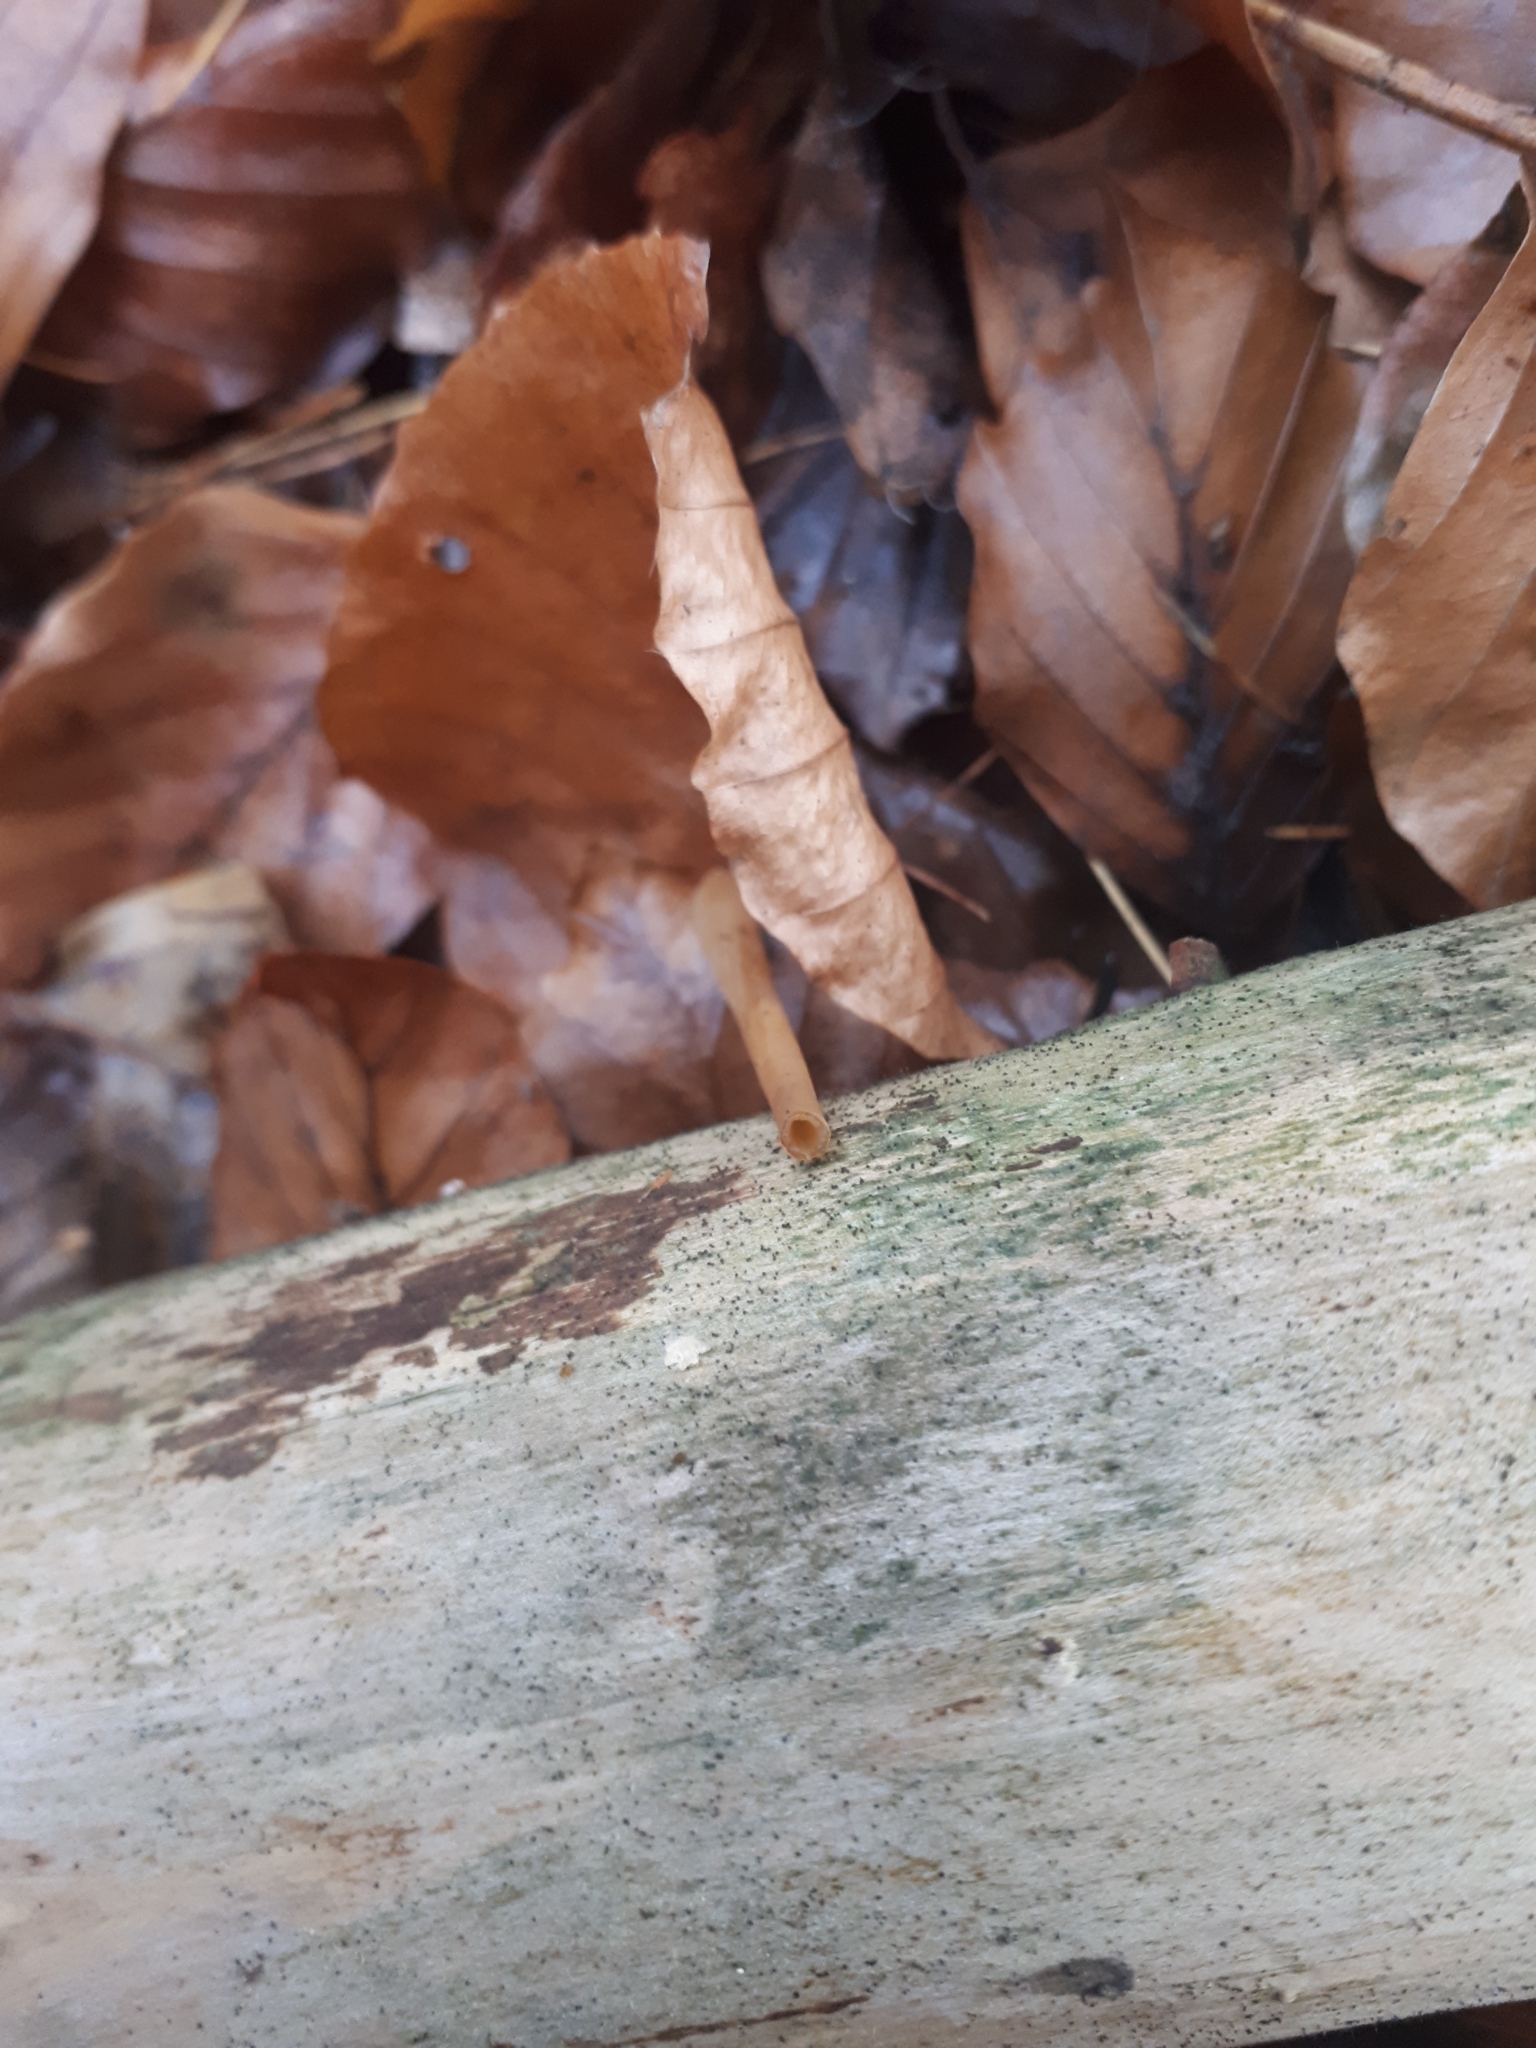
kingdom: Fungi
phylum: Basidiomycota
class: Agaricomycetes
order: Agaricales
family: Typhulaceae
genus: Typhula
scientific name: Typhula fistulosa
